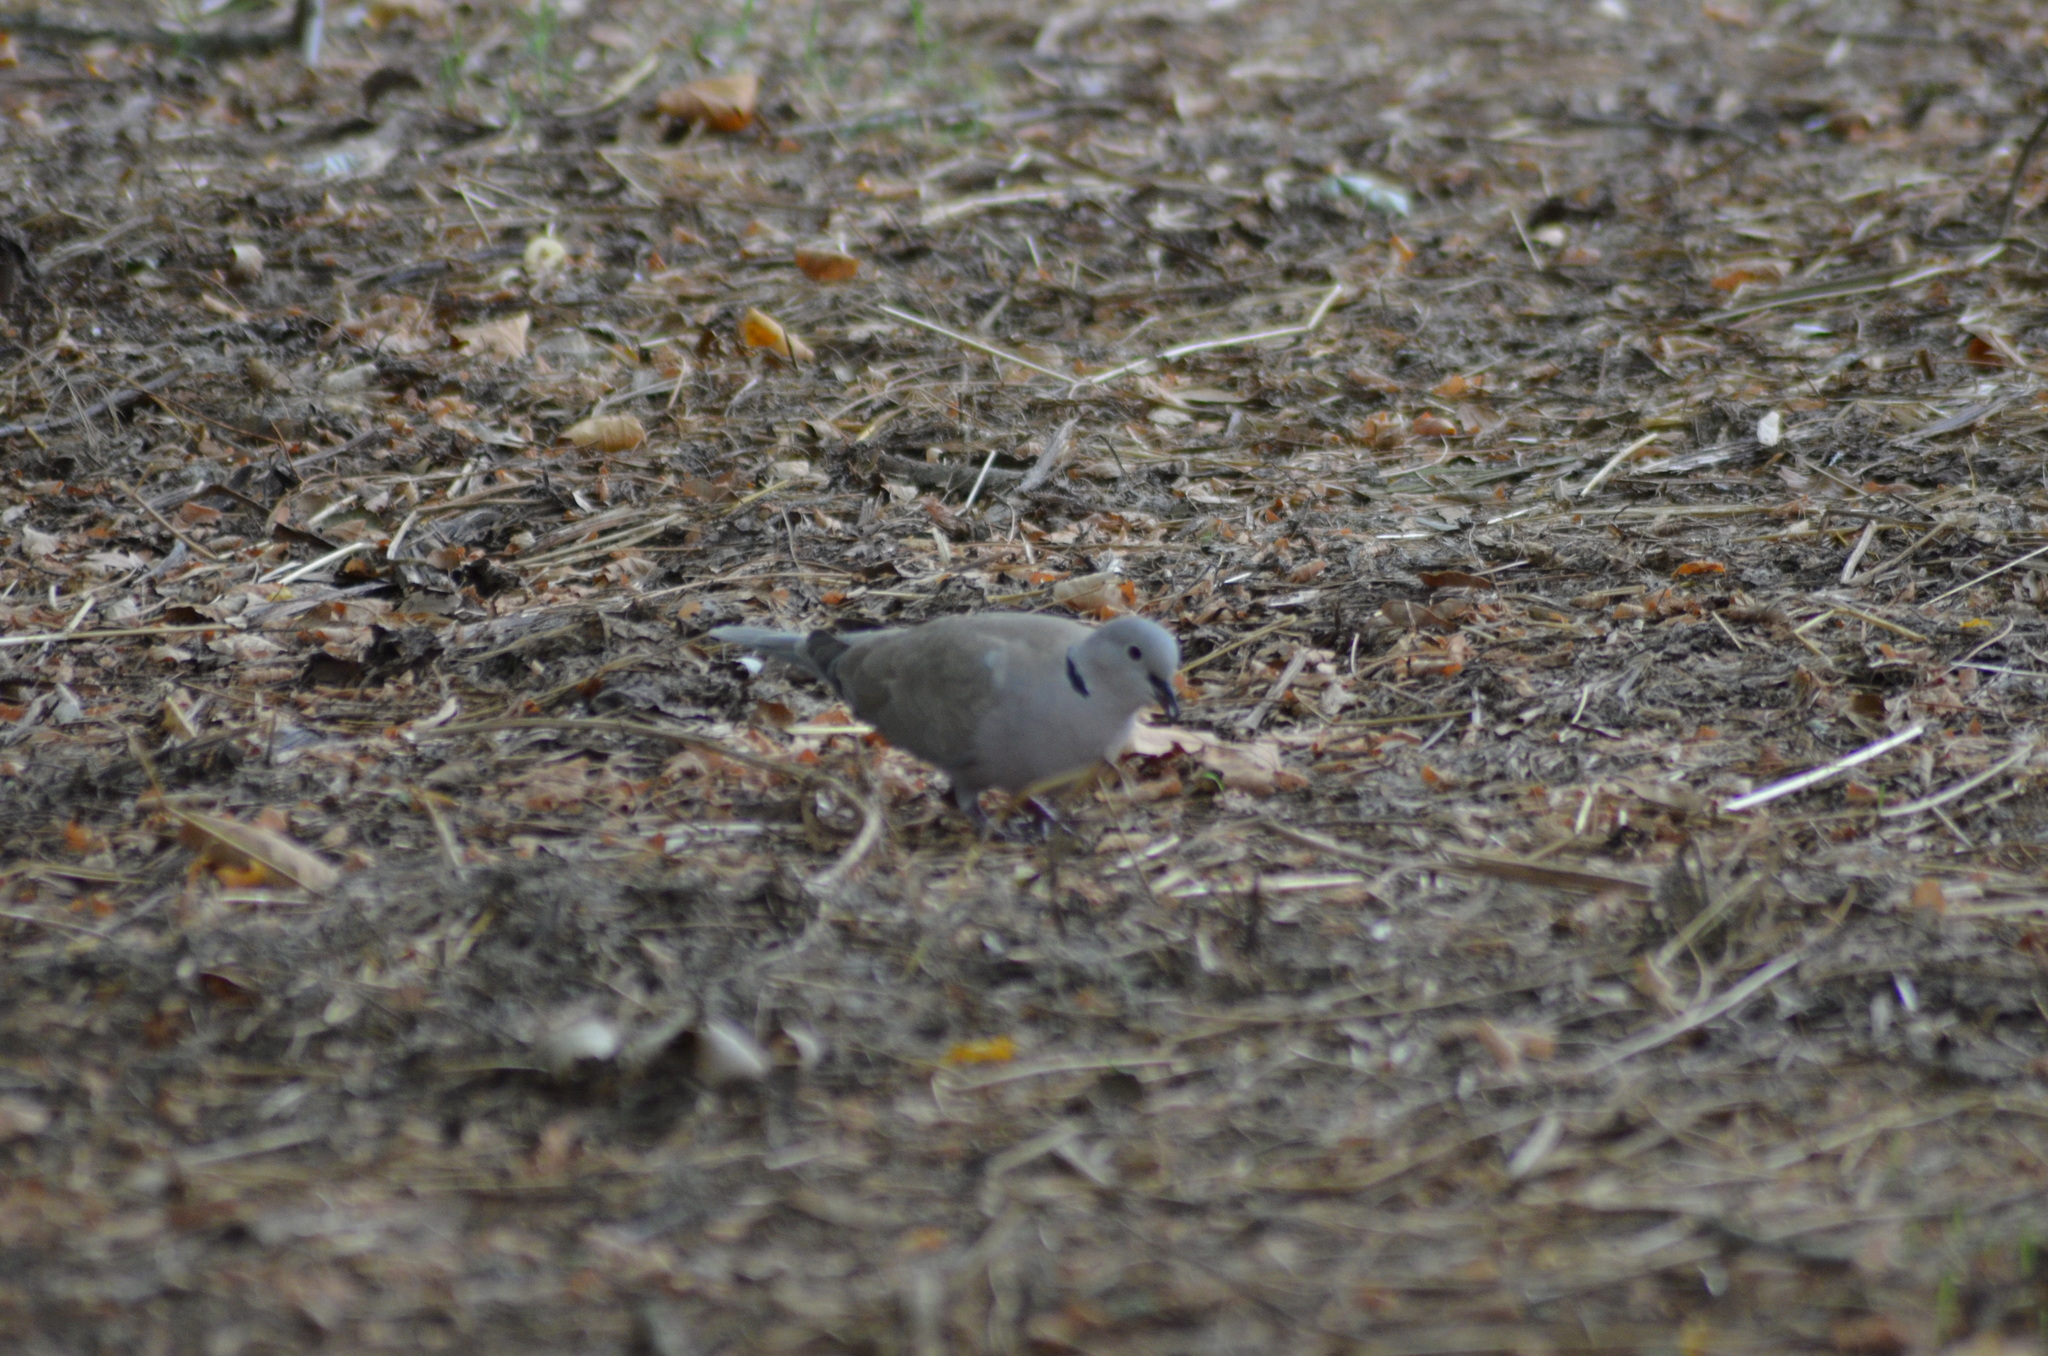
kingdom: Animalia
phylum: Chordata
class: Aves
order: Columbiformes
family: Columbidae
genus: Streptopelia
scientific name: Streptopelia decaocto
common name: Eurasian collared dove
